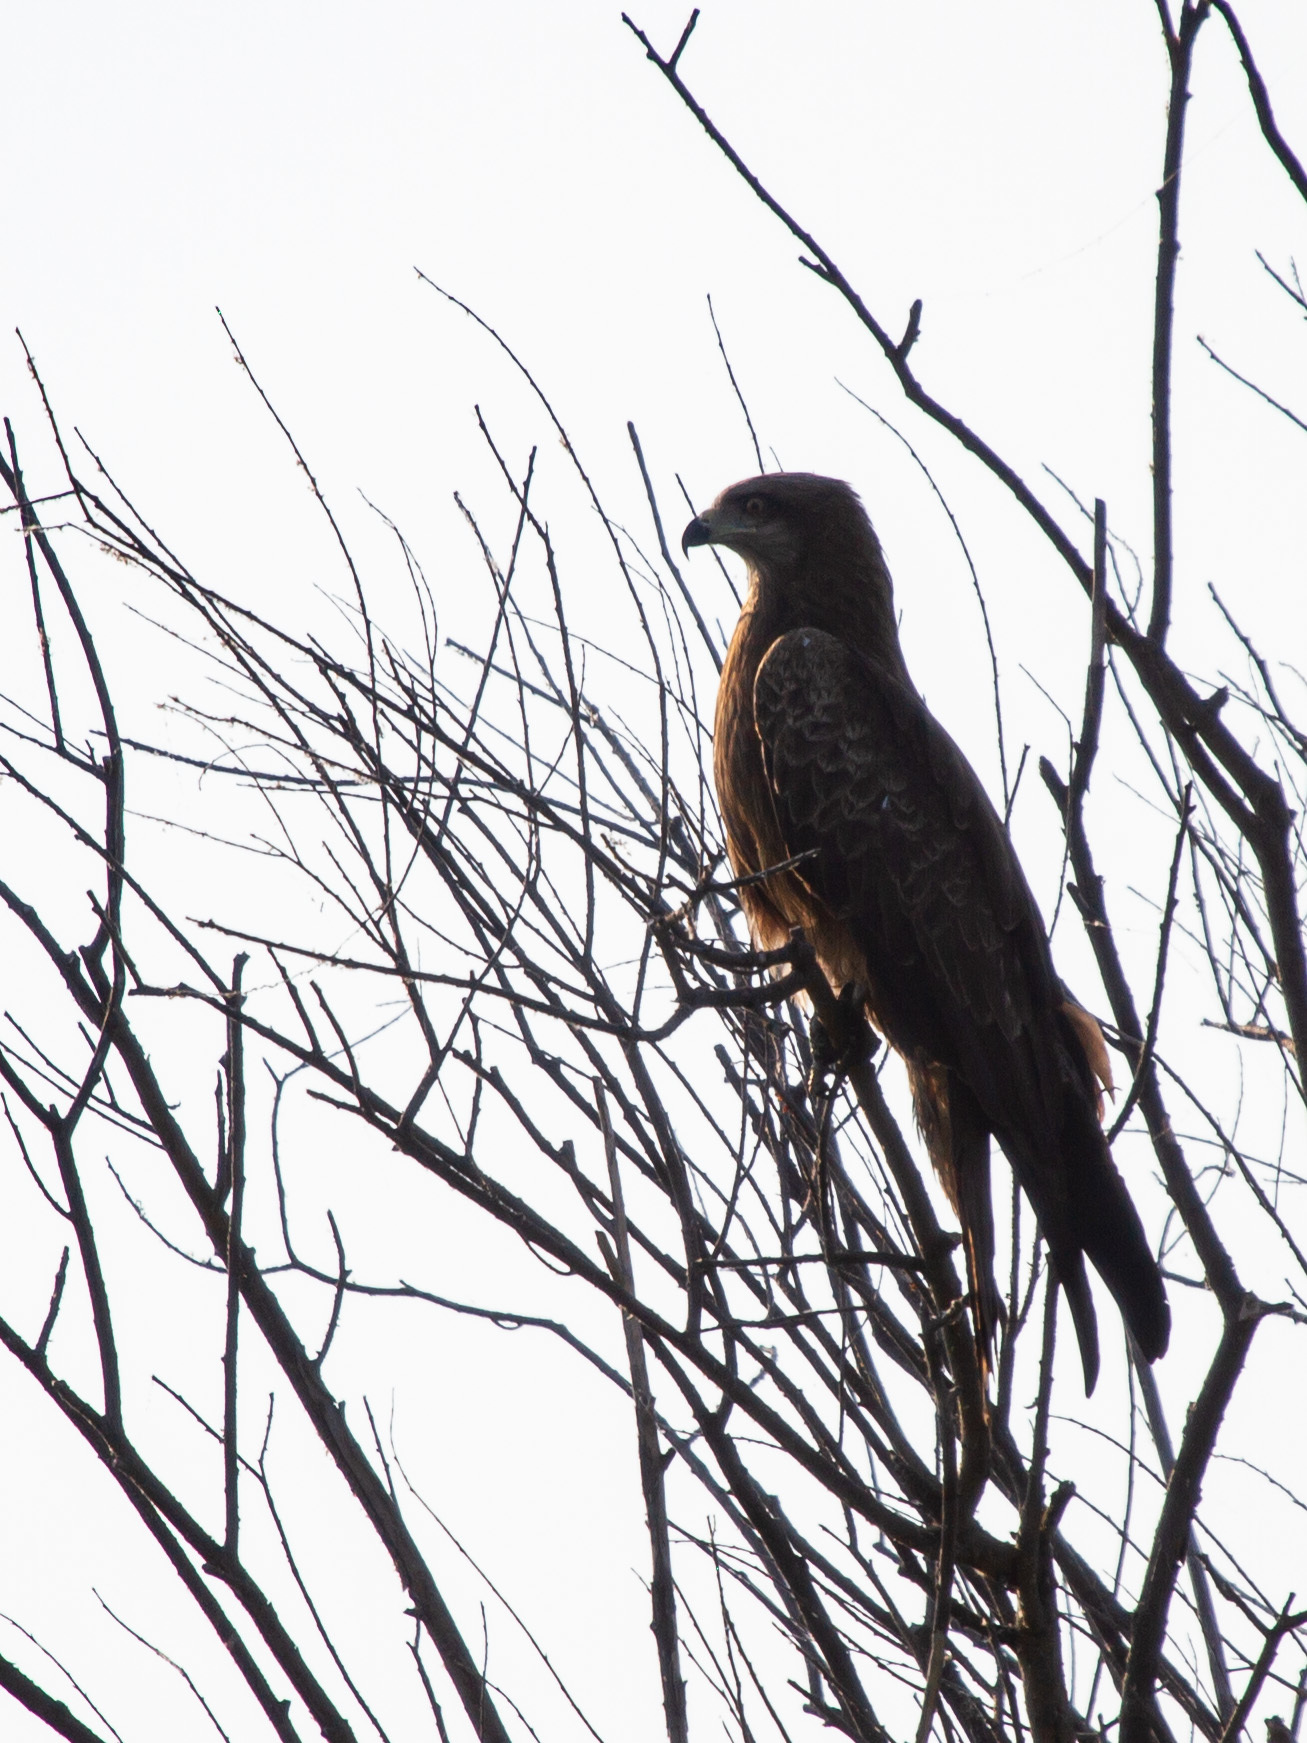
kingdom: Animalia
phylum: Chordata
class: Aves
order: Accipitriformes
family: Accipitridae
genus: Milvus
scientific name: Milvus migrans
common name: Black kite
